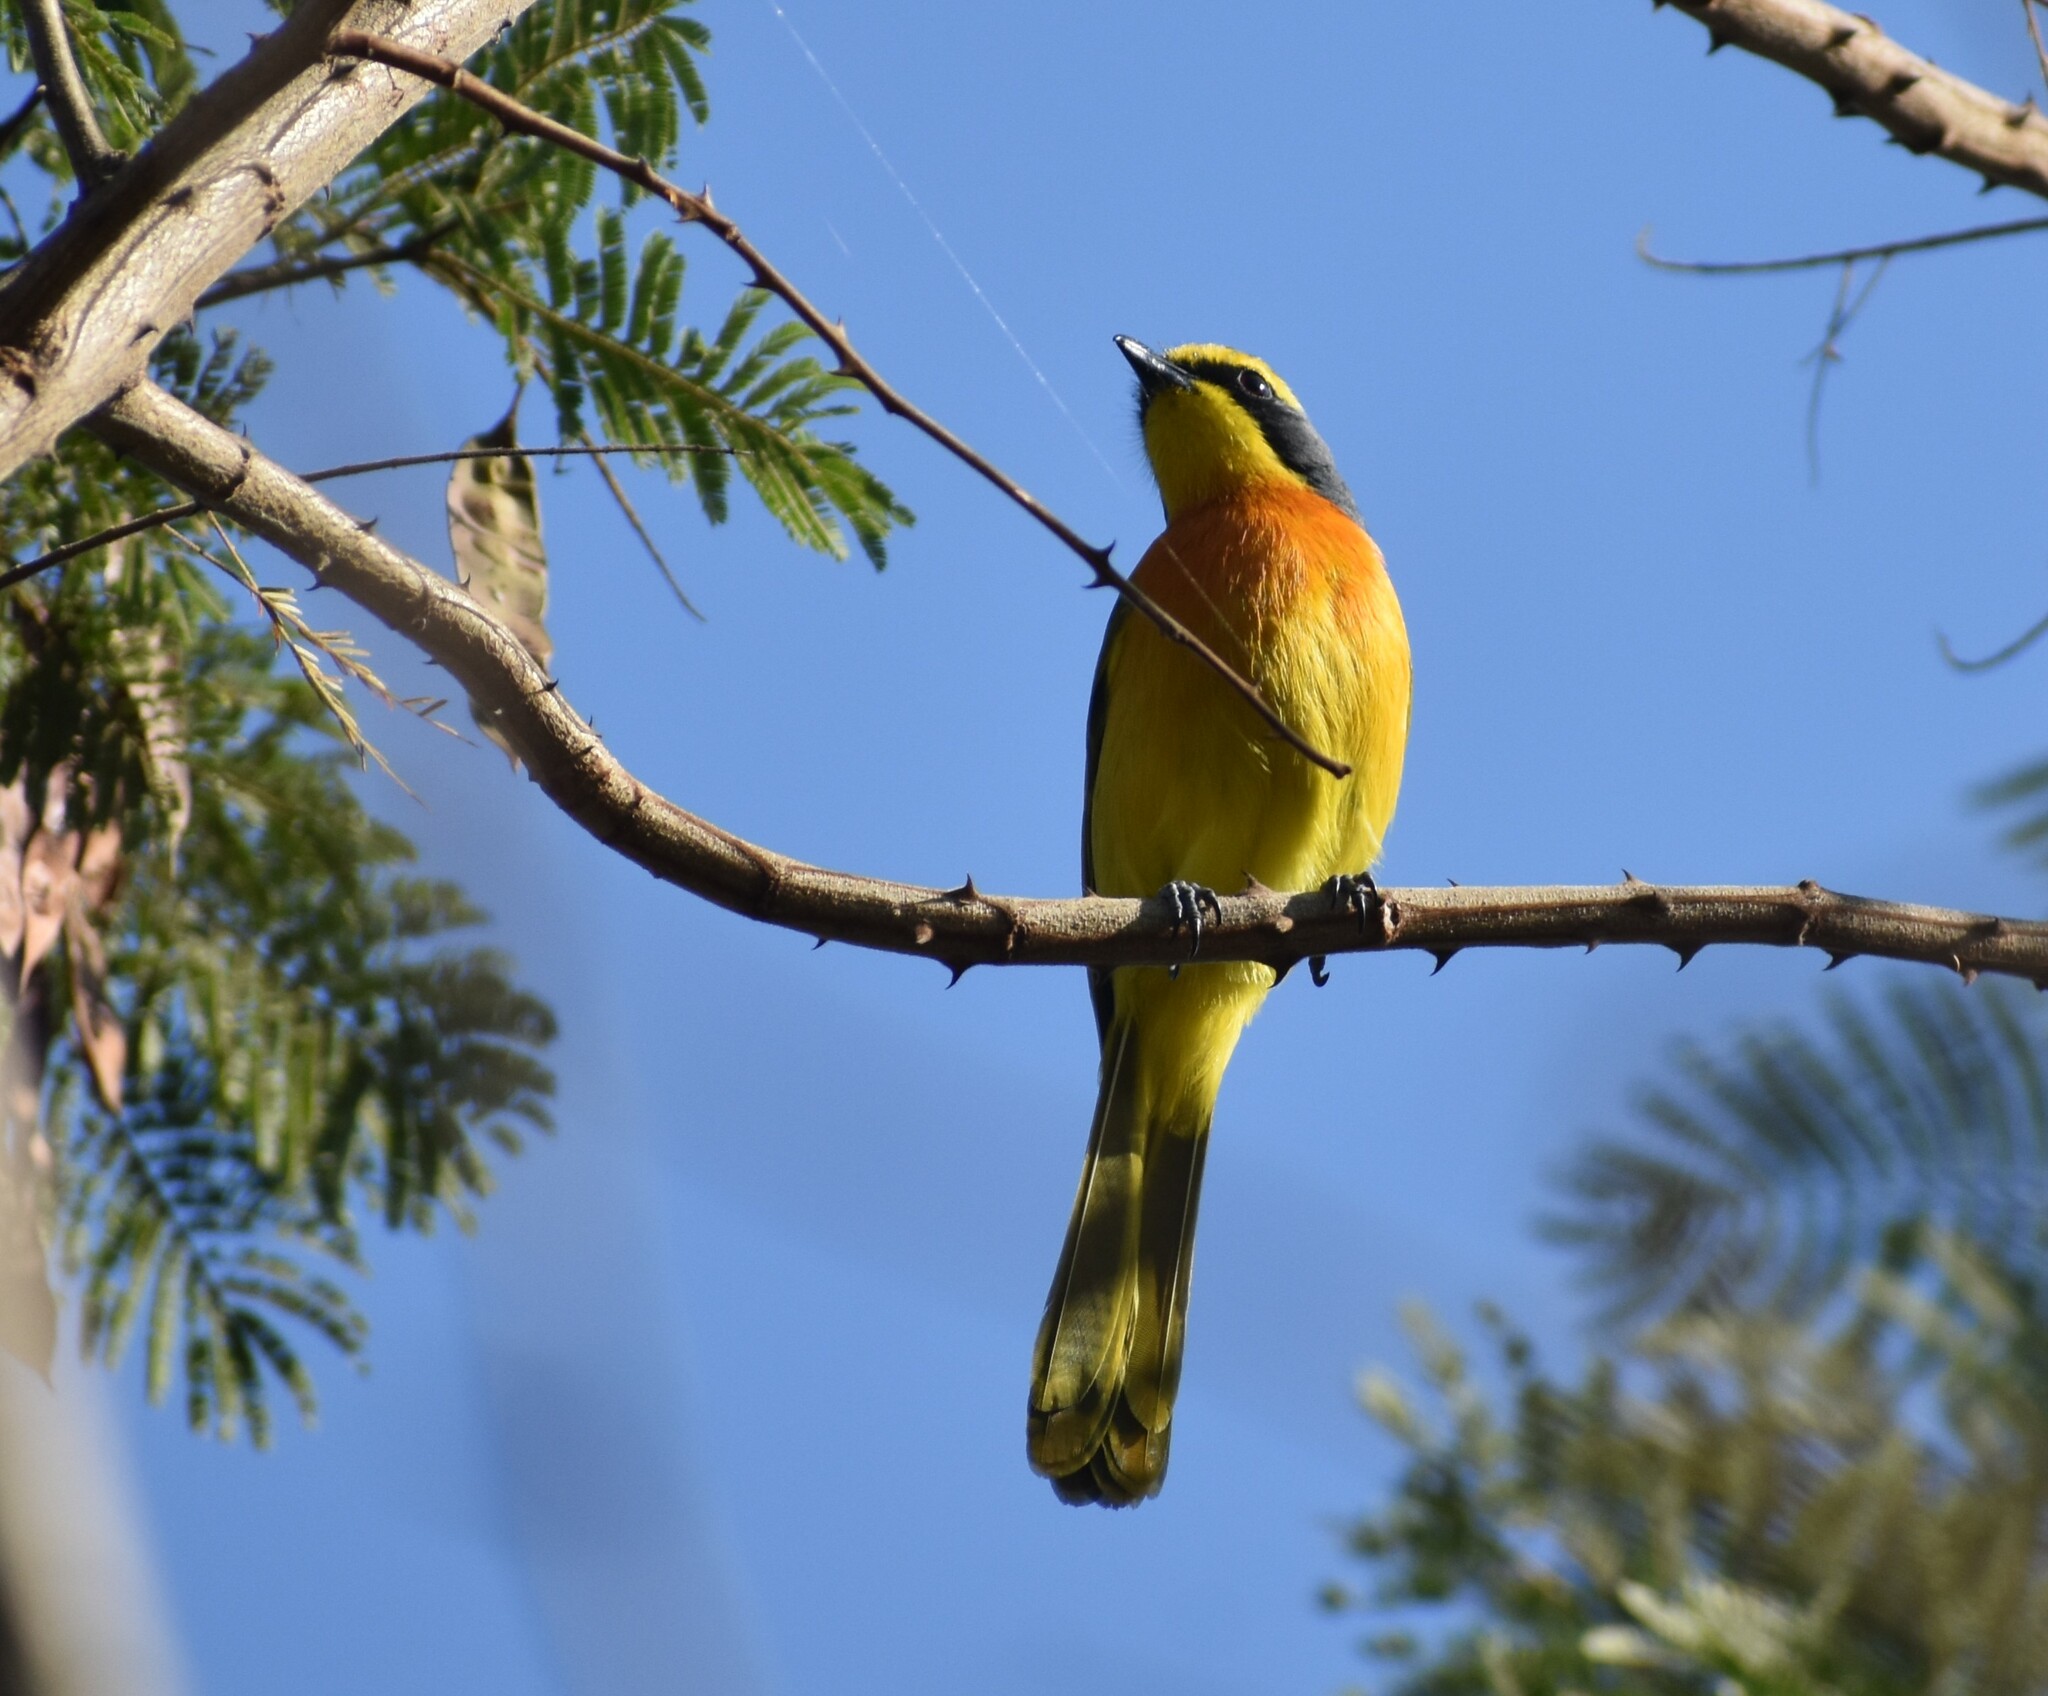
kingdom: Animalia
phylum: Chordata
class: Aves
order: Passeriformes
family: Malaconotidae
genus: Chlorophoneus
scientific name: Chlorophoneus sulfureopectus
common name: Orange-breasted bushshrike
